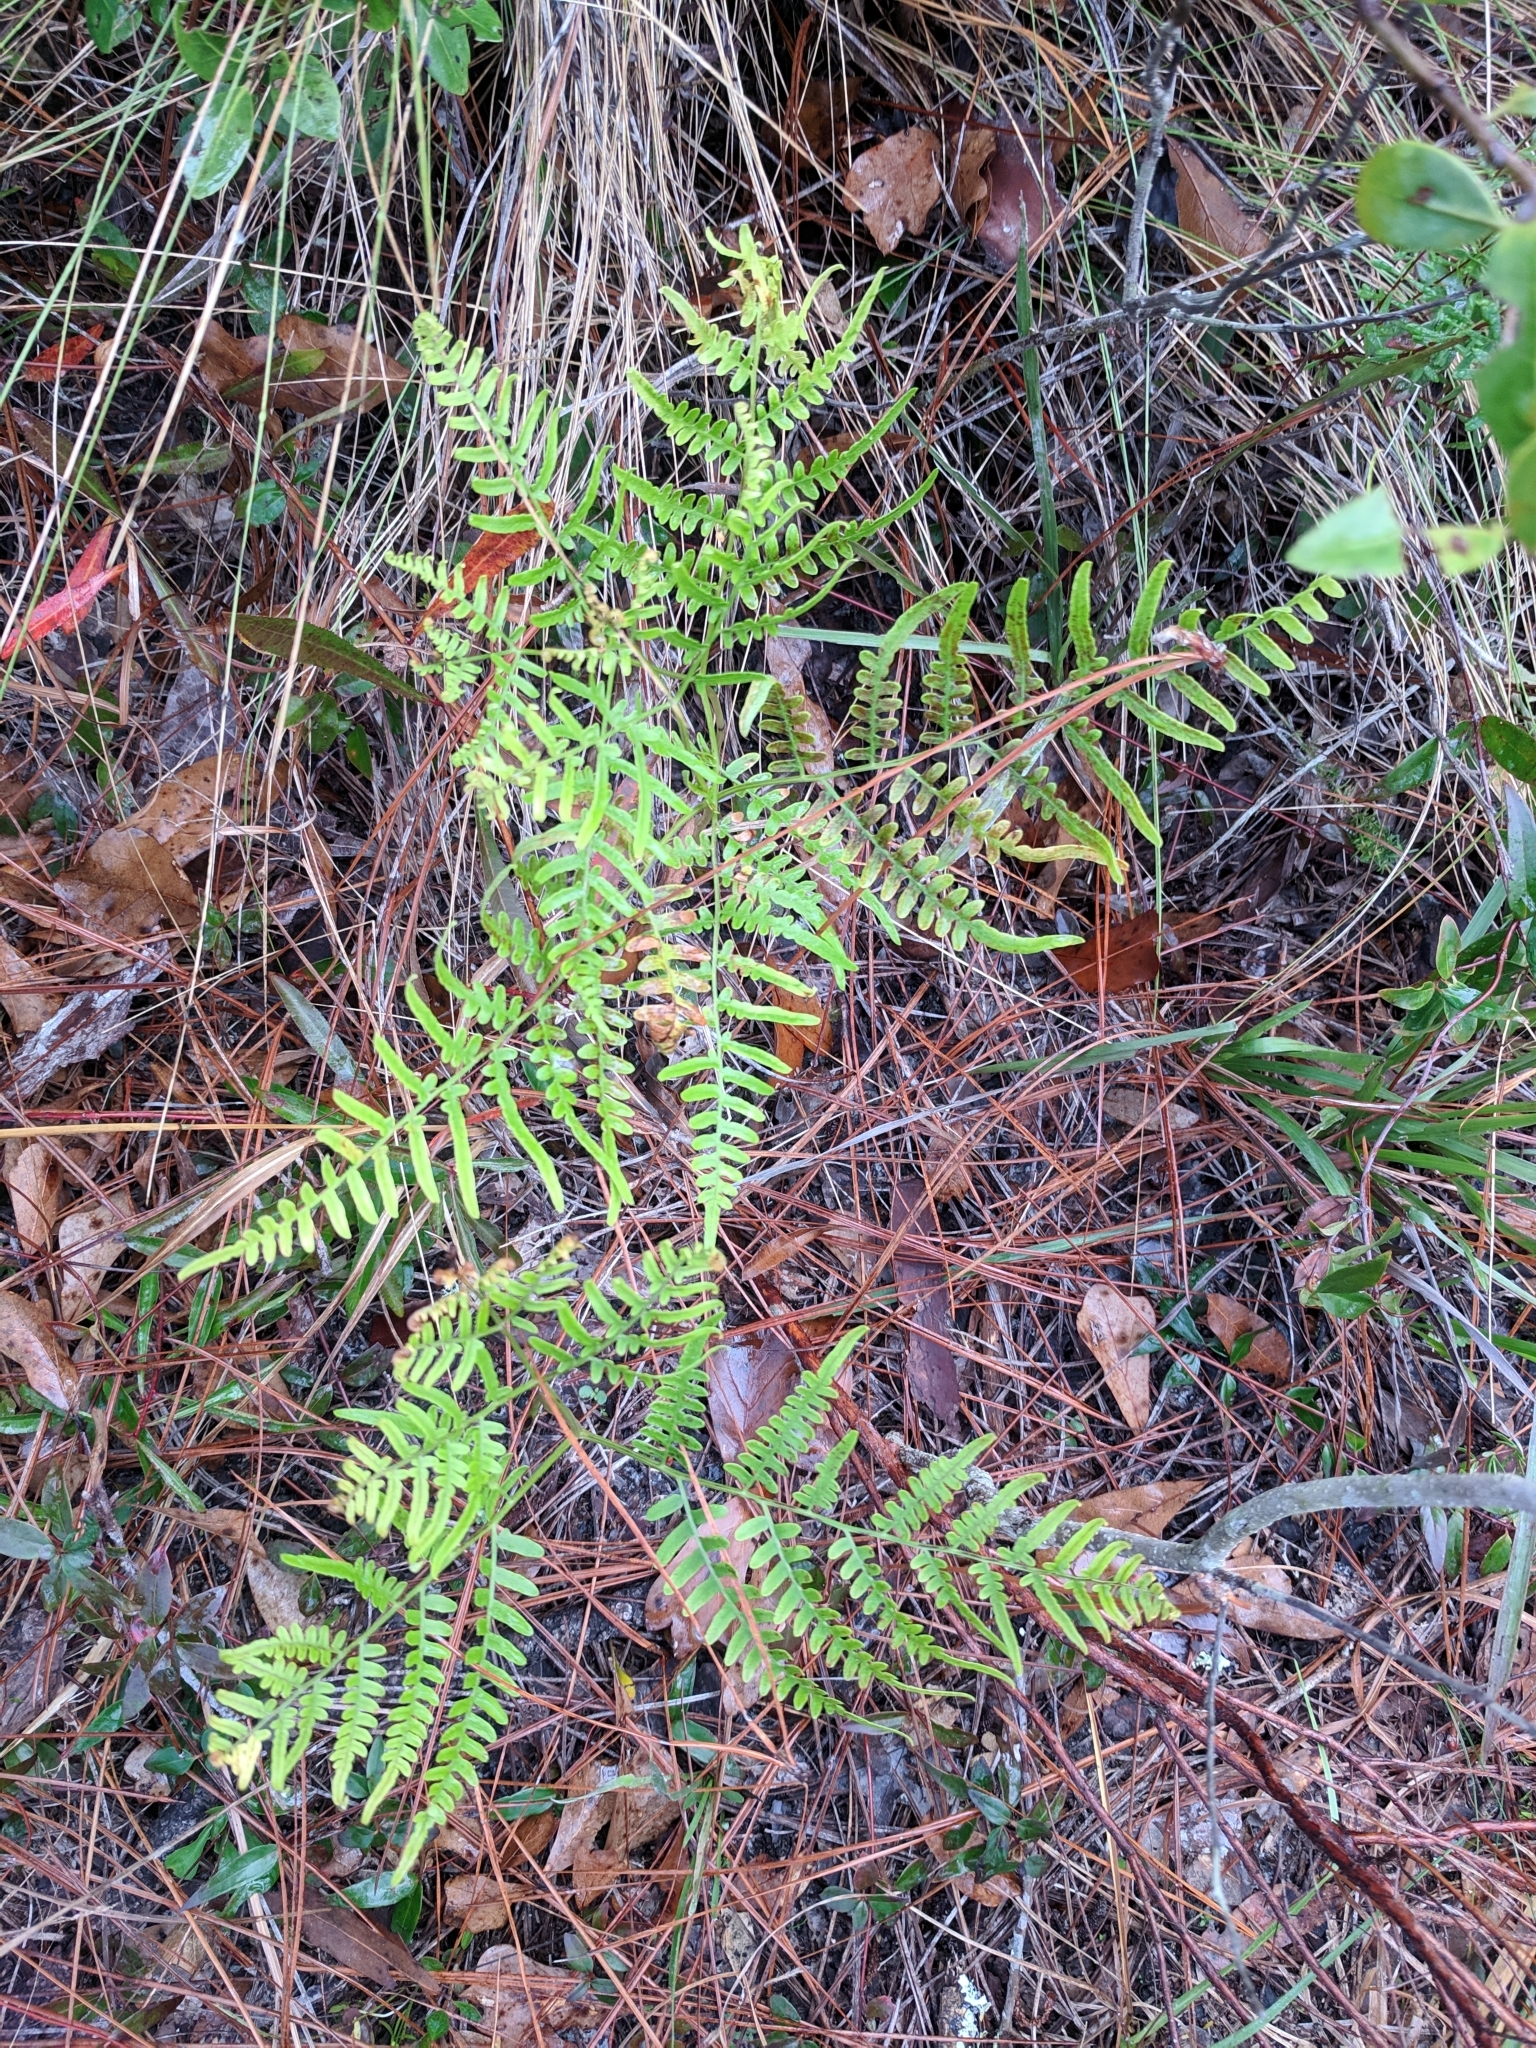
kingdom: Plantae
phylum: Tracheophyta
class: Polypodiopsida
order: Polypodiales
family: Dennstaedtiaceae
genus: Pteridium
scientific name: Pteridium
